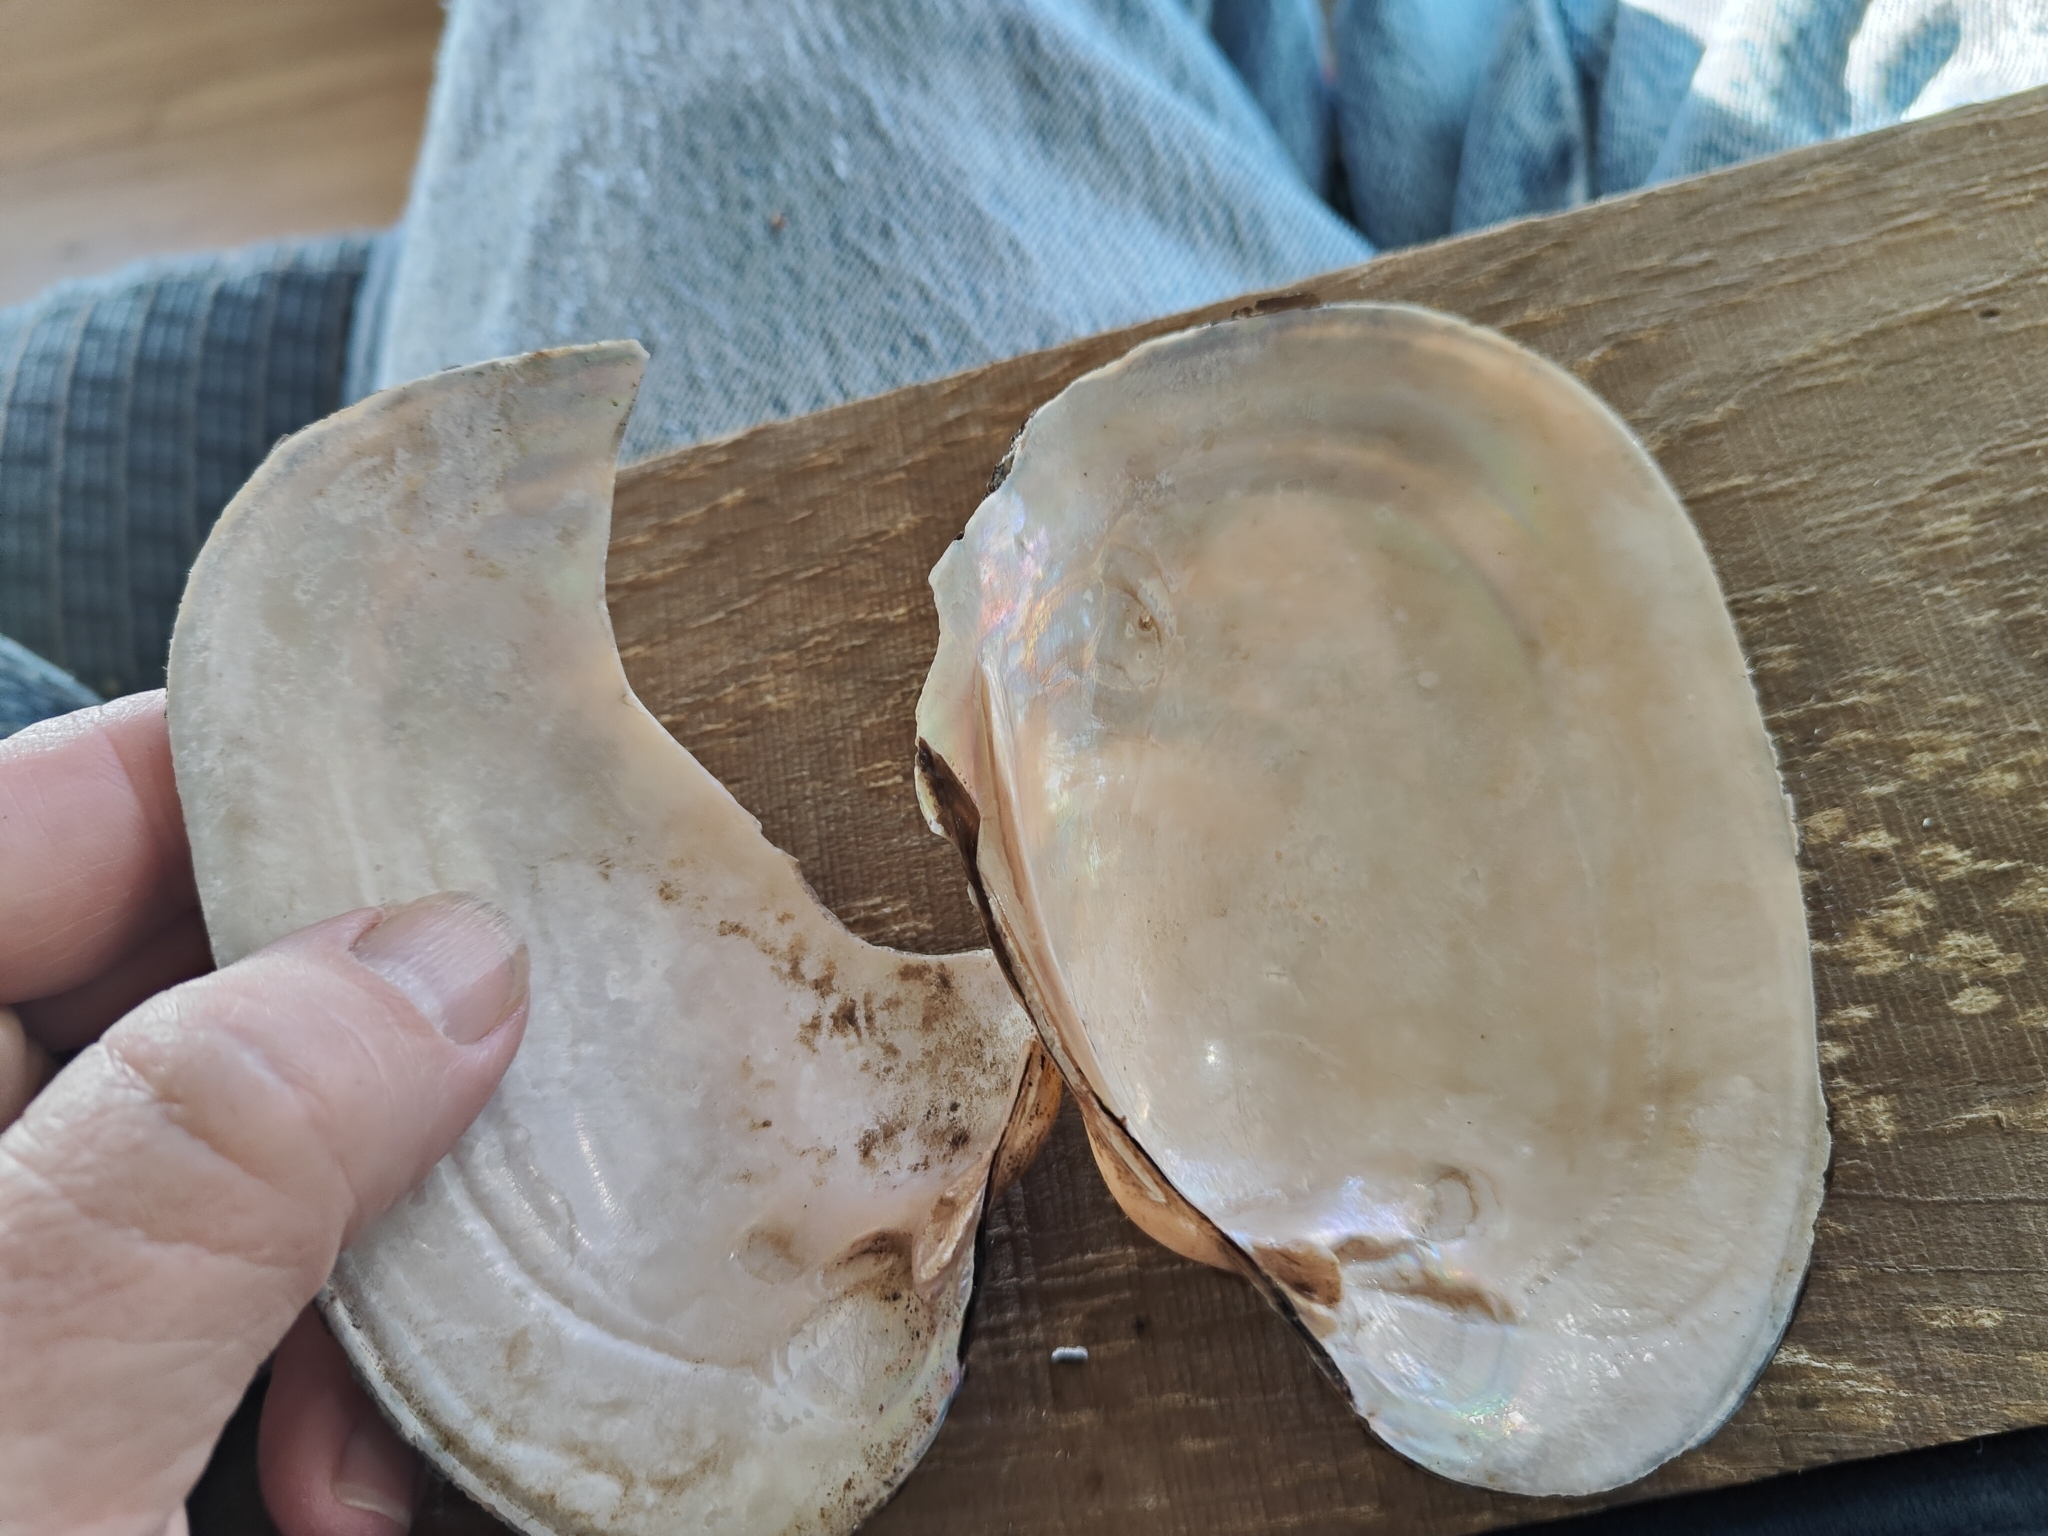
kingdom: Animalia
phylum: Mollusca
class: Bivalvia
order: Unionida
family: Unionidae
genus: Potamilus
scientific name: Potamilus alatus
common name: Pink heelsplitter
